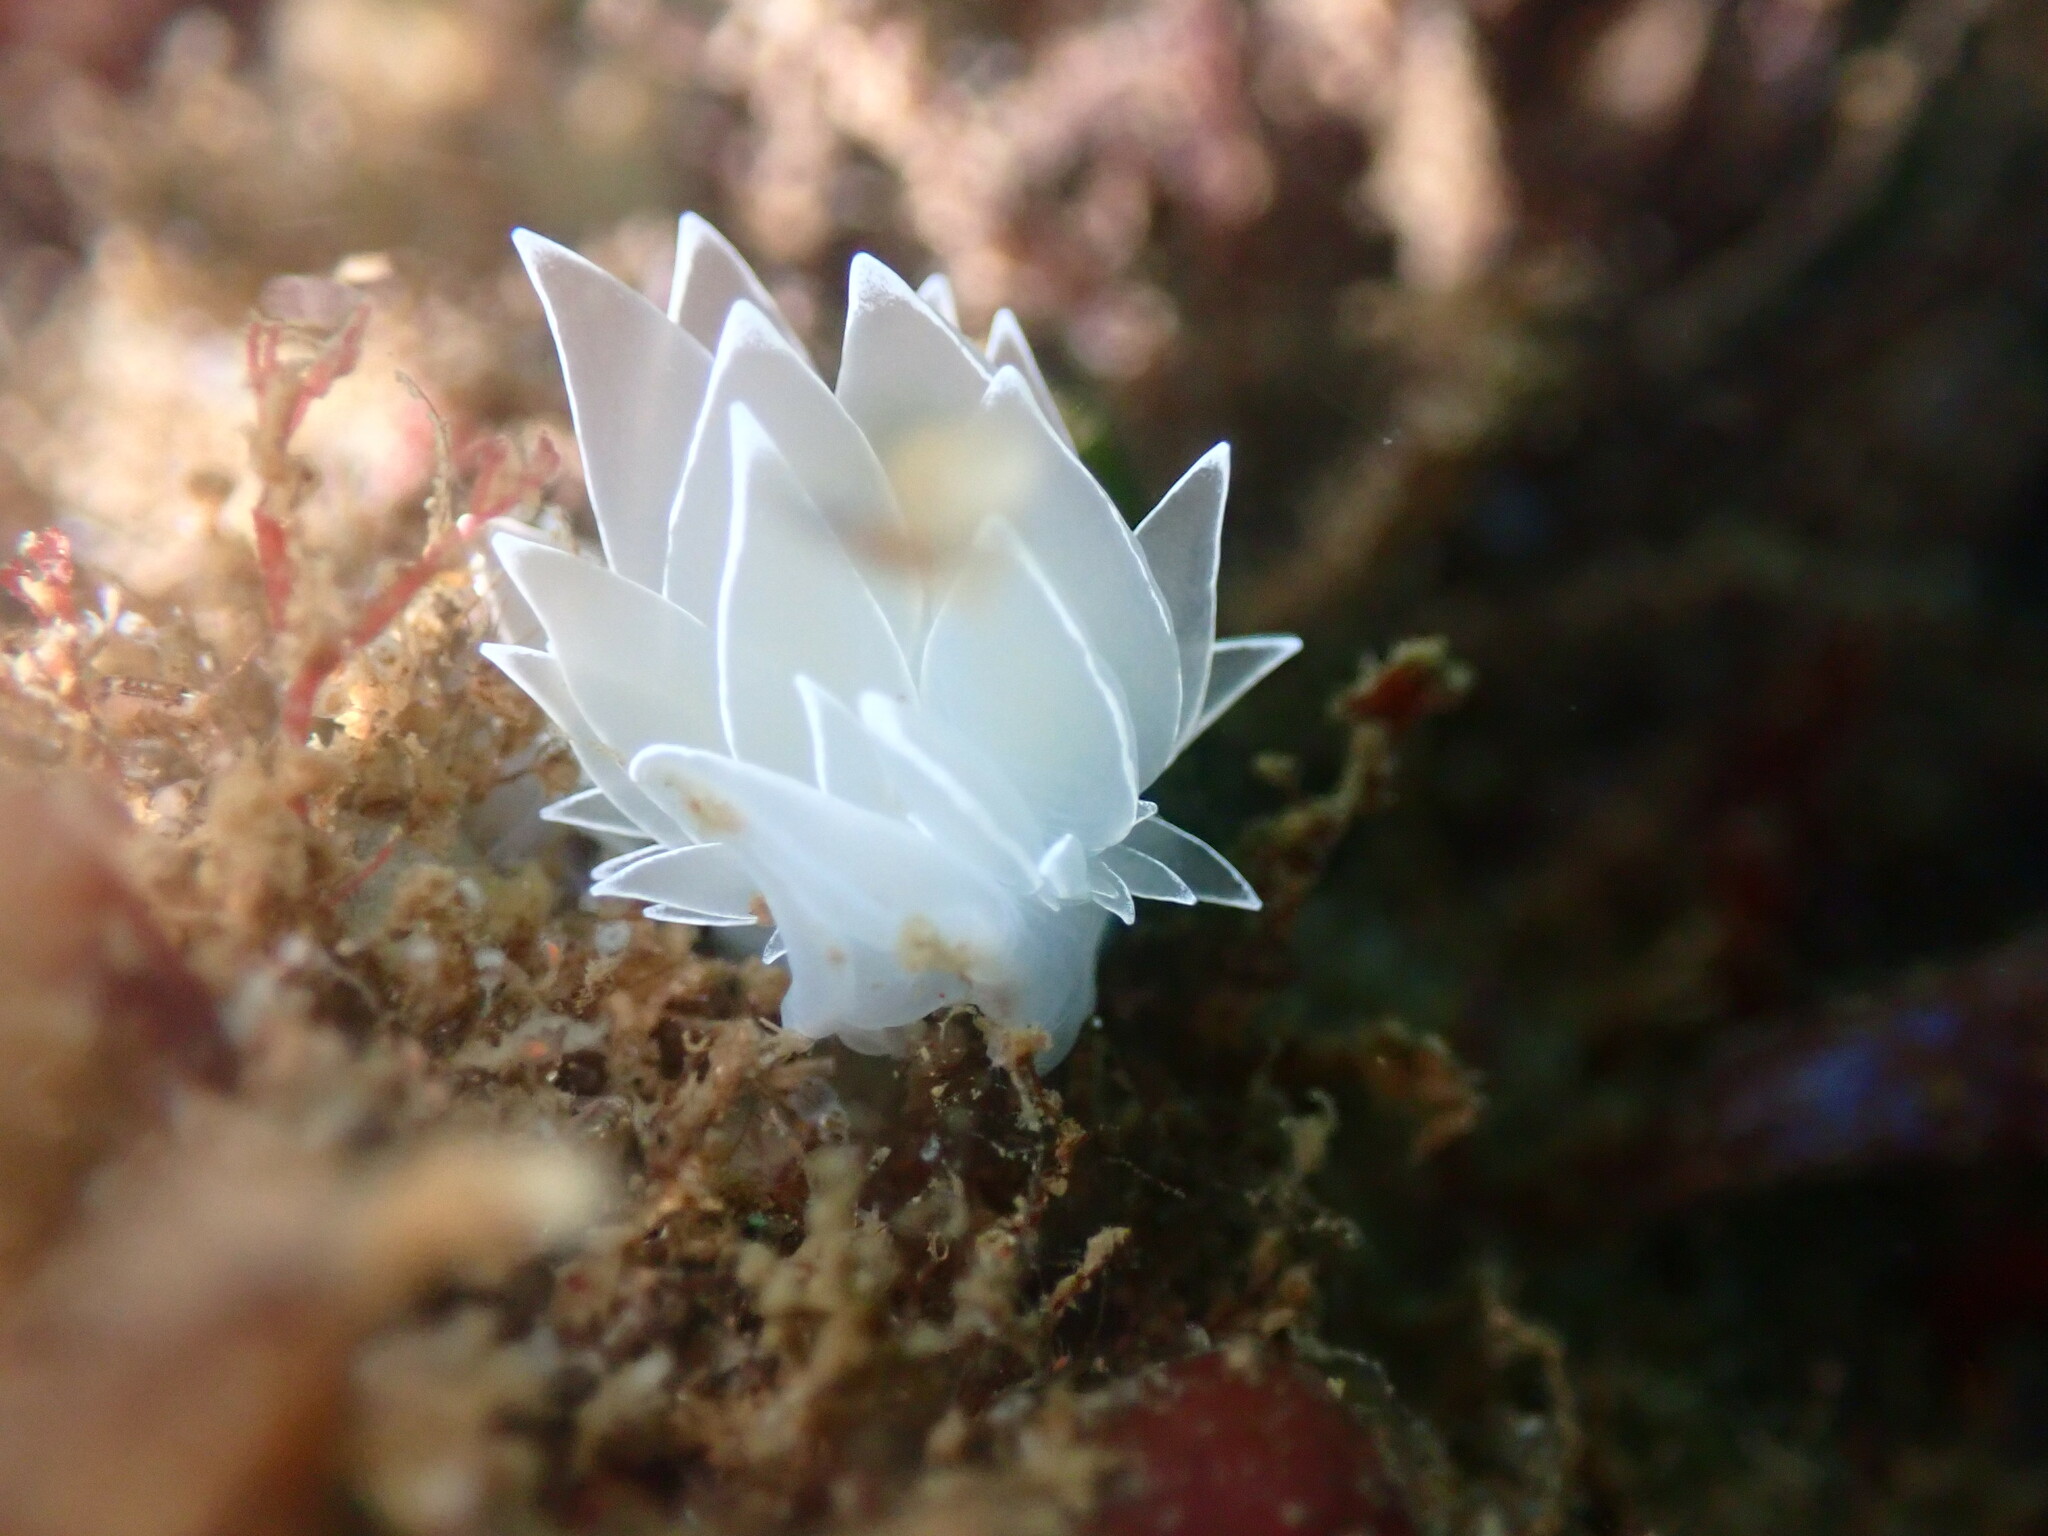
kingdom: Animalia
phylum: Mollusca
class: Gastropoda
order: Nudibranchia
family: Dironidae
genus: Dirona
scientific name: Dirona albolineata
